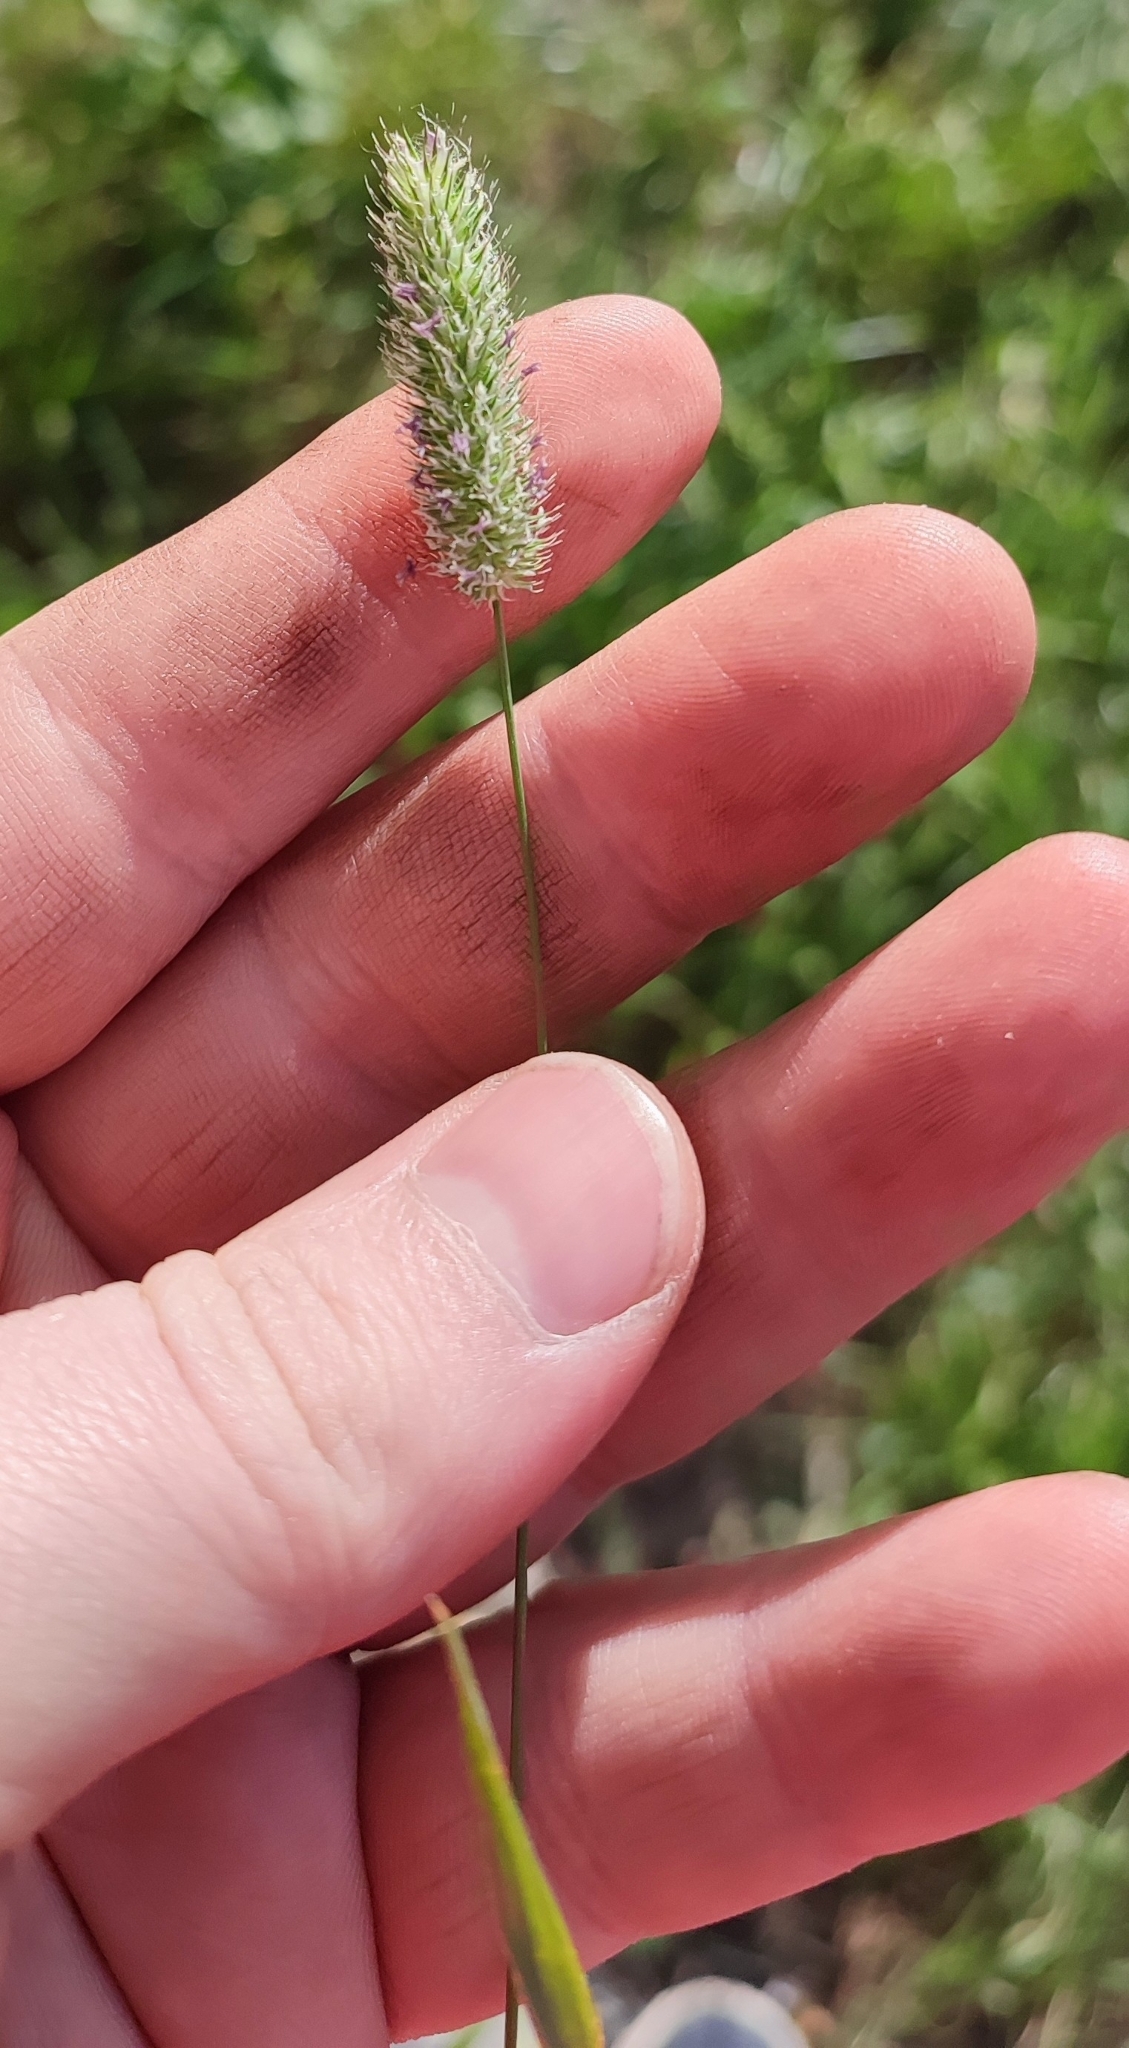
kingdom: Plantae
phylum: Tracheophyta
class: Liliopsida
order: Poales
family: Poaceae
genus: Phleum
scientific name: Phleum pratense
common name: Timothy grass
